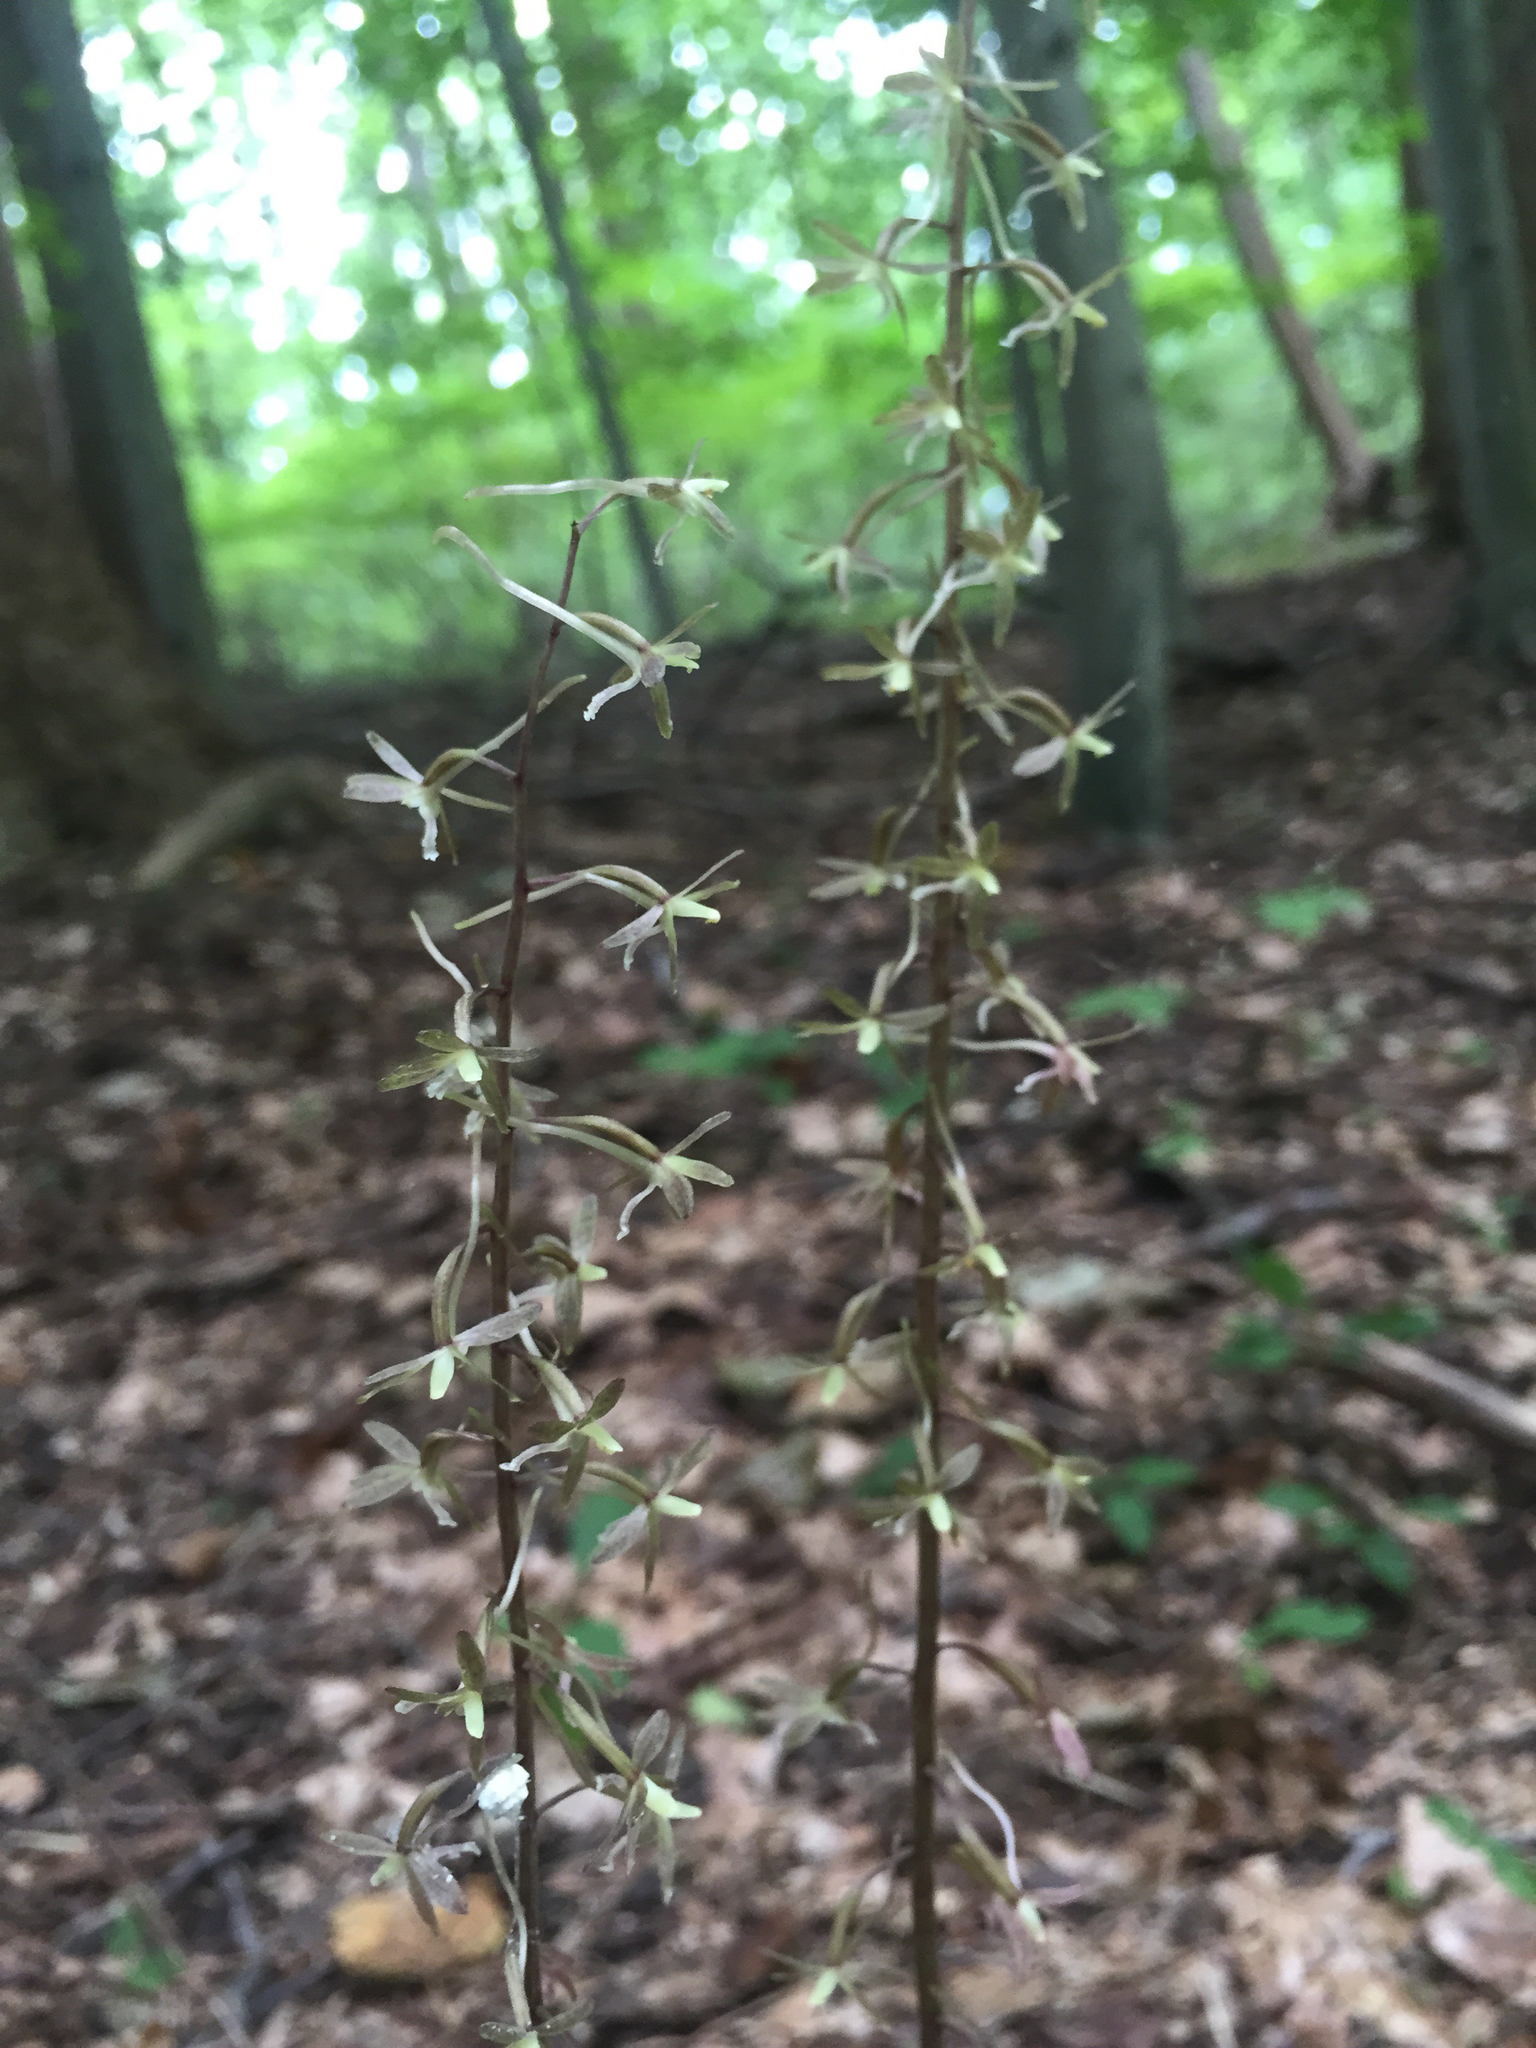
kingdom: Plantae
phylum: Tracheophyta
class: Liliopsida
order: Asparagales
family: Orchidaceae
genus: Tipularia
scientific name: Tipularia discolor
